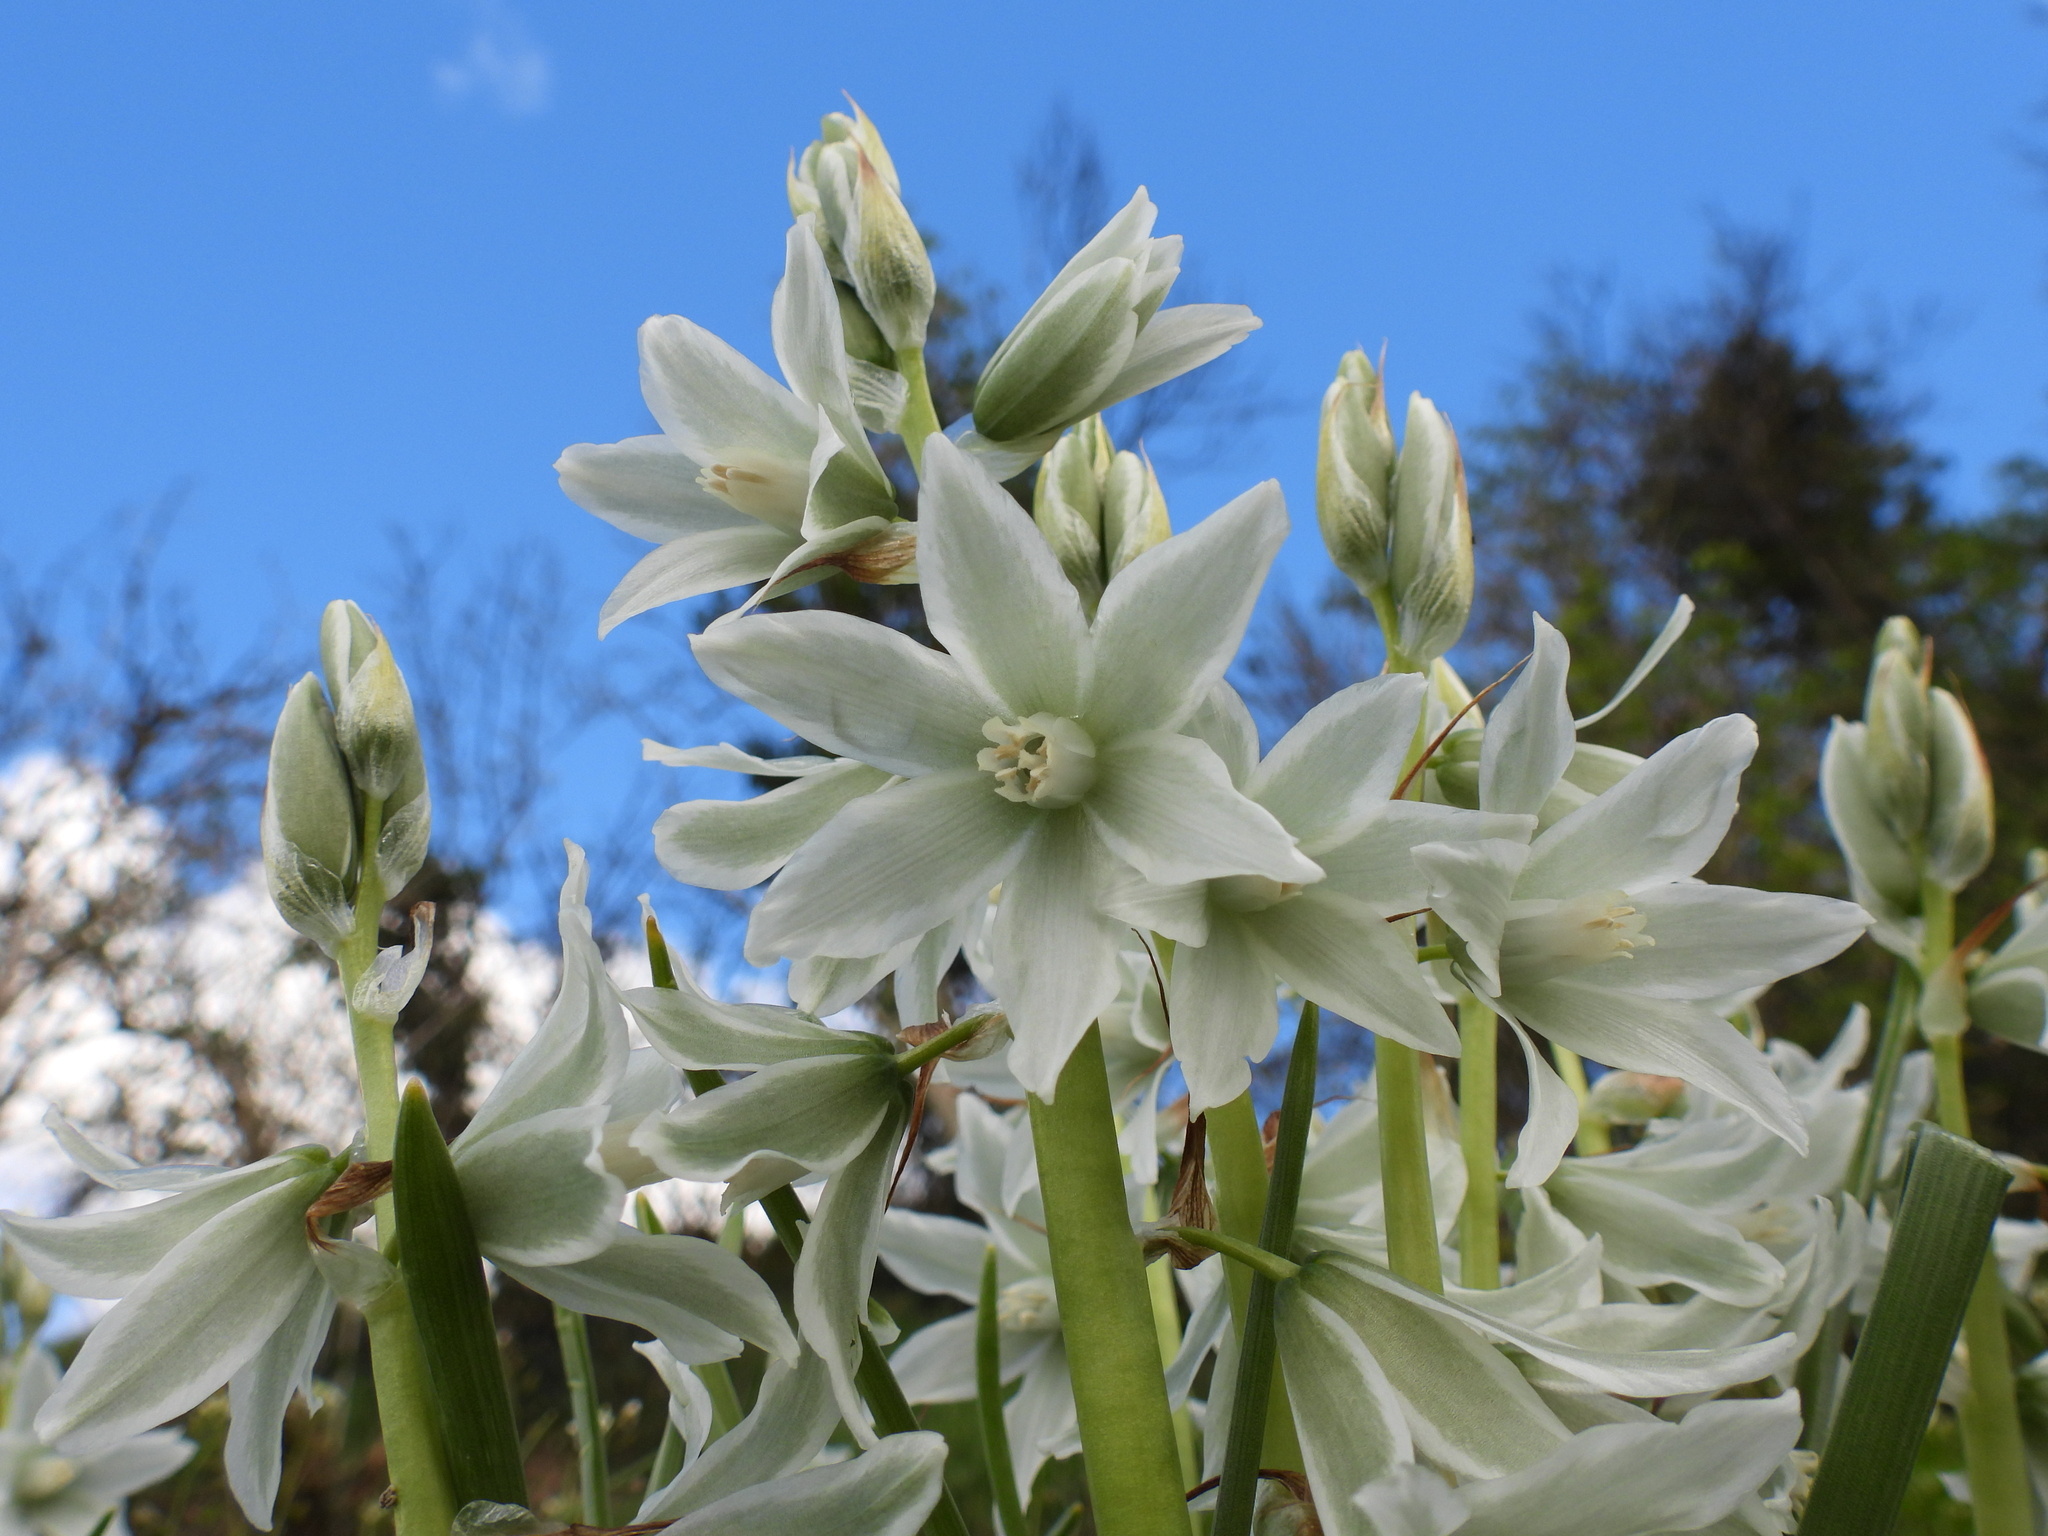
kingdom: Plantae
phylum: Tracheophyta
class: Liliopsida
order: Asparagales
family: Asparagaceae
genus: Ornithogalum
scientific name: Ornithogalum nutans
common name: Drooping star-of-bethlehem
